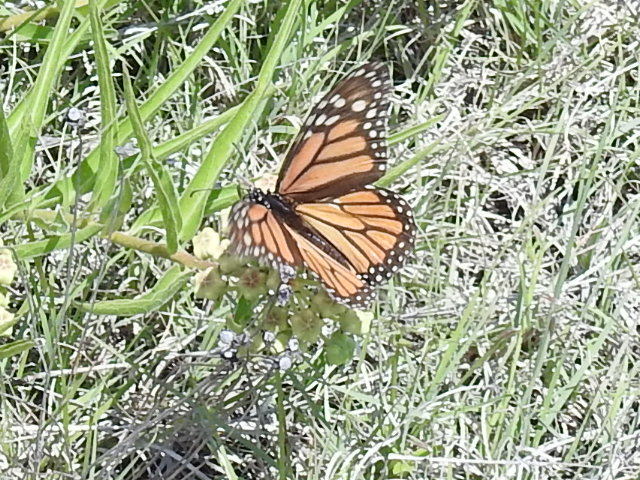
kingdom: Animalia
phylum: Arthropoda
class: Insecta
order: Lepidoptera
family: Nymphalidae
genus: Danaus
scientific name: Danaus plexippus
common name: Monarch
